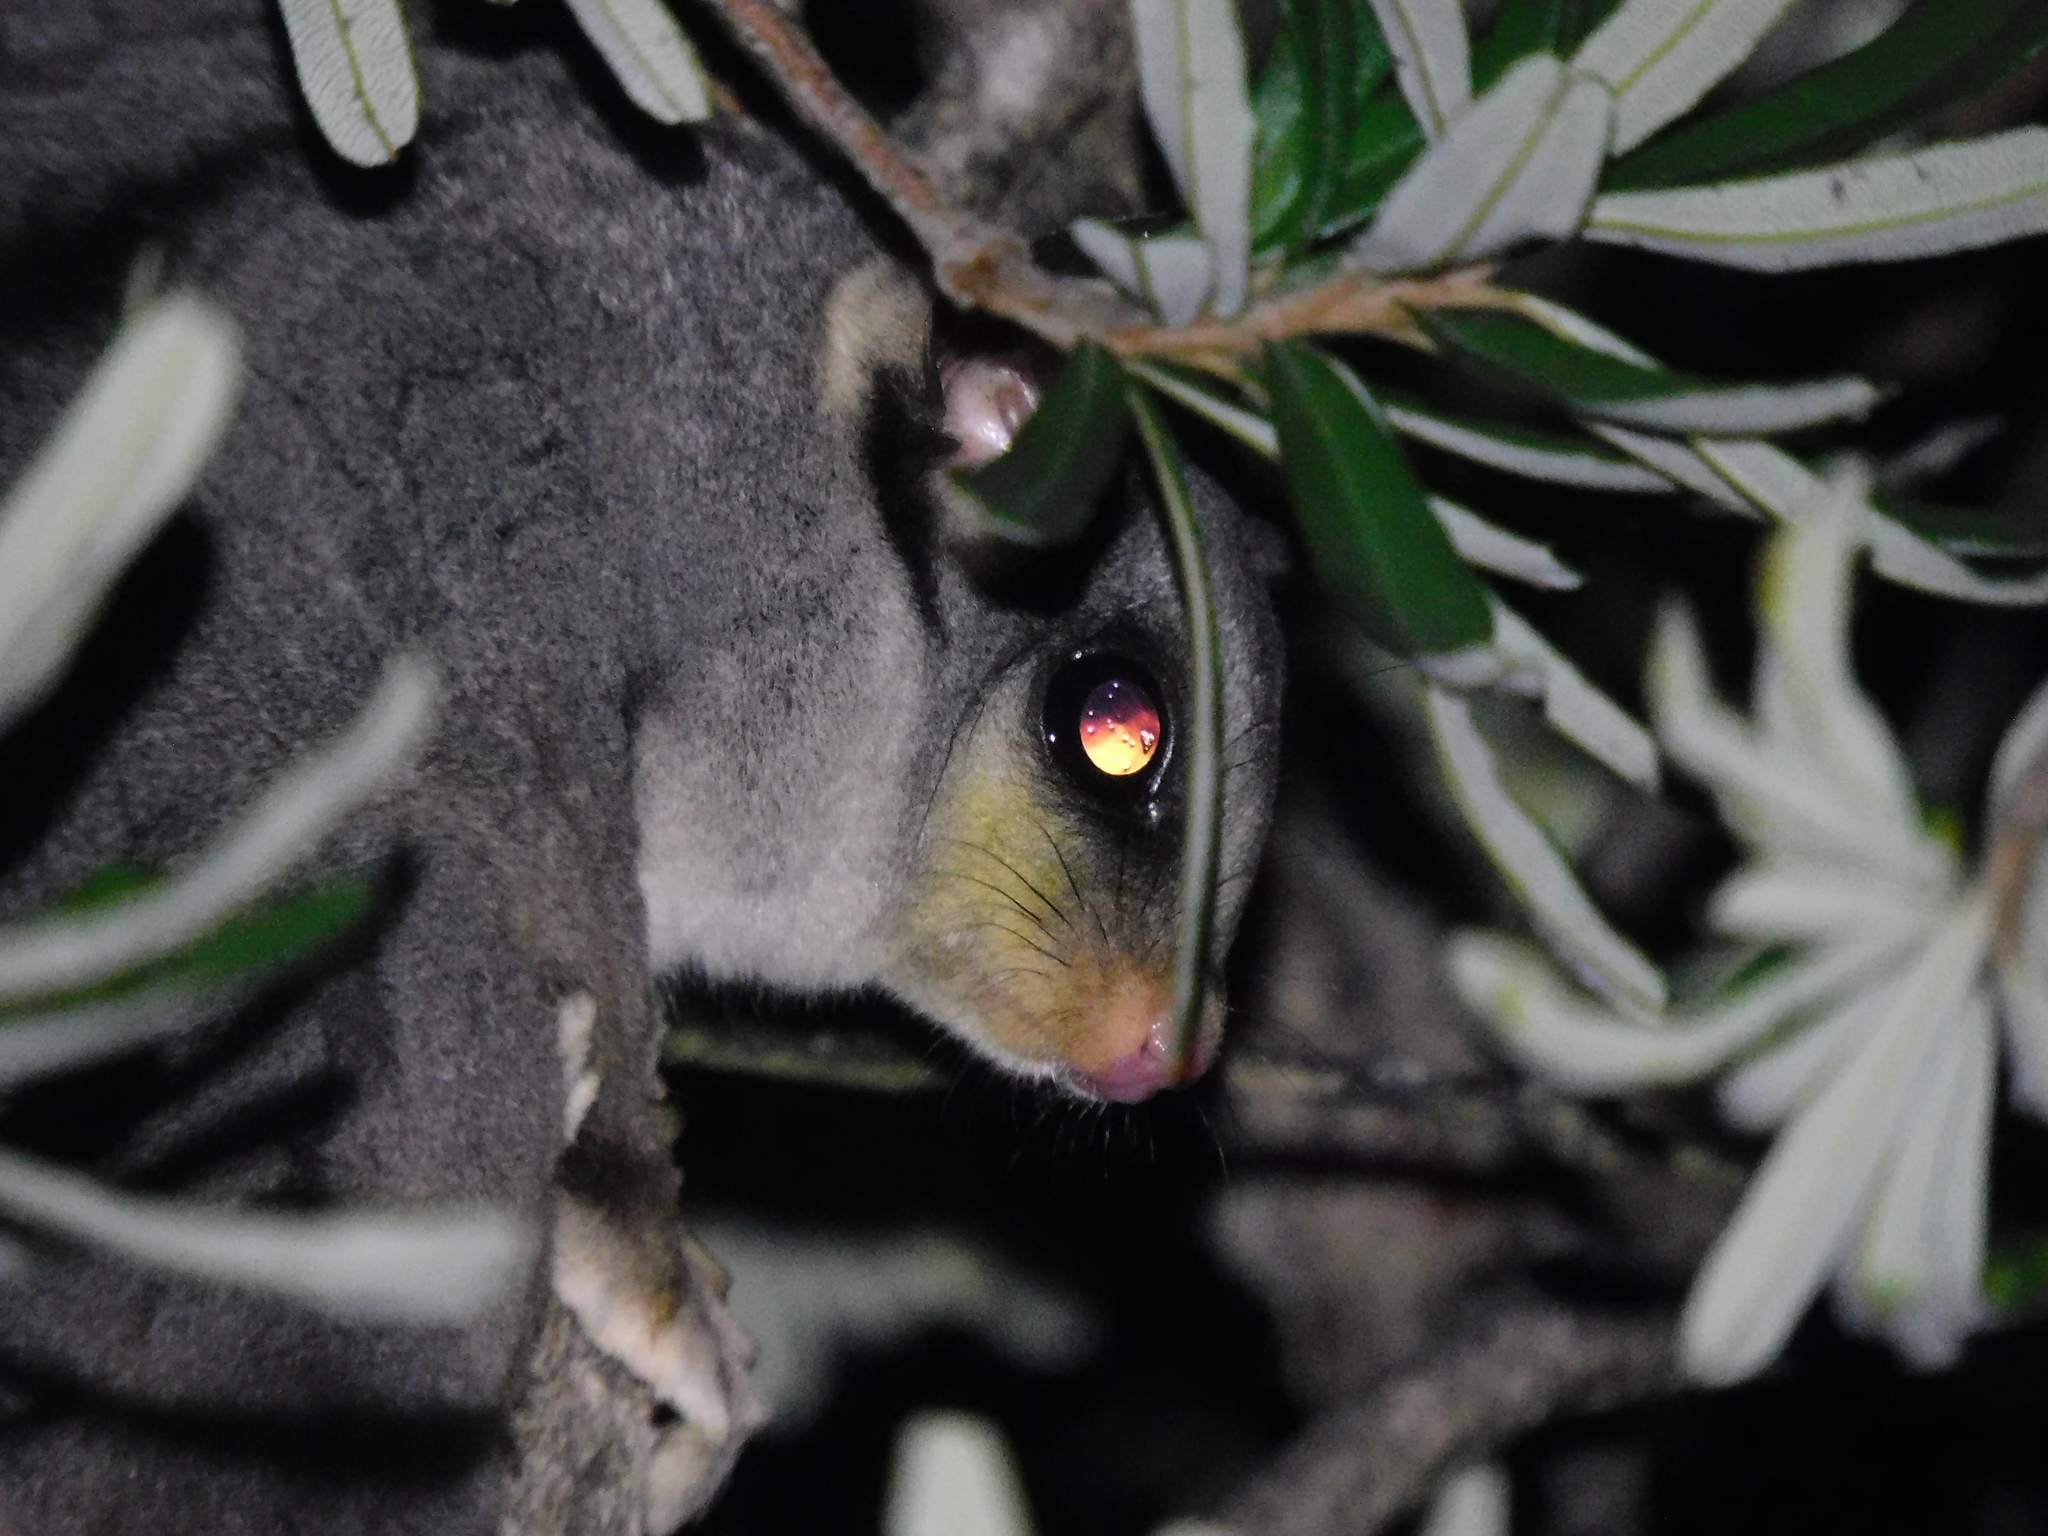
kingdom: Animalia
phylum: Chordata
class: Mammalia
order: Diprotodontia
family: Petauridae
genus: Petaurus
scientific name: Petaurus breviceps
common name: Sugar glider
